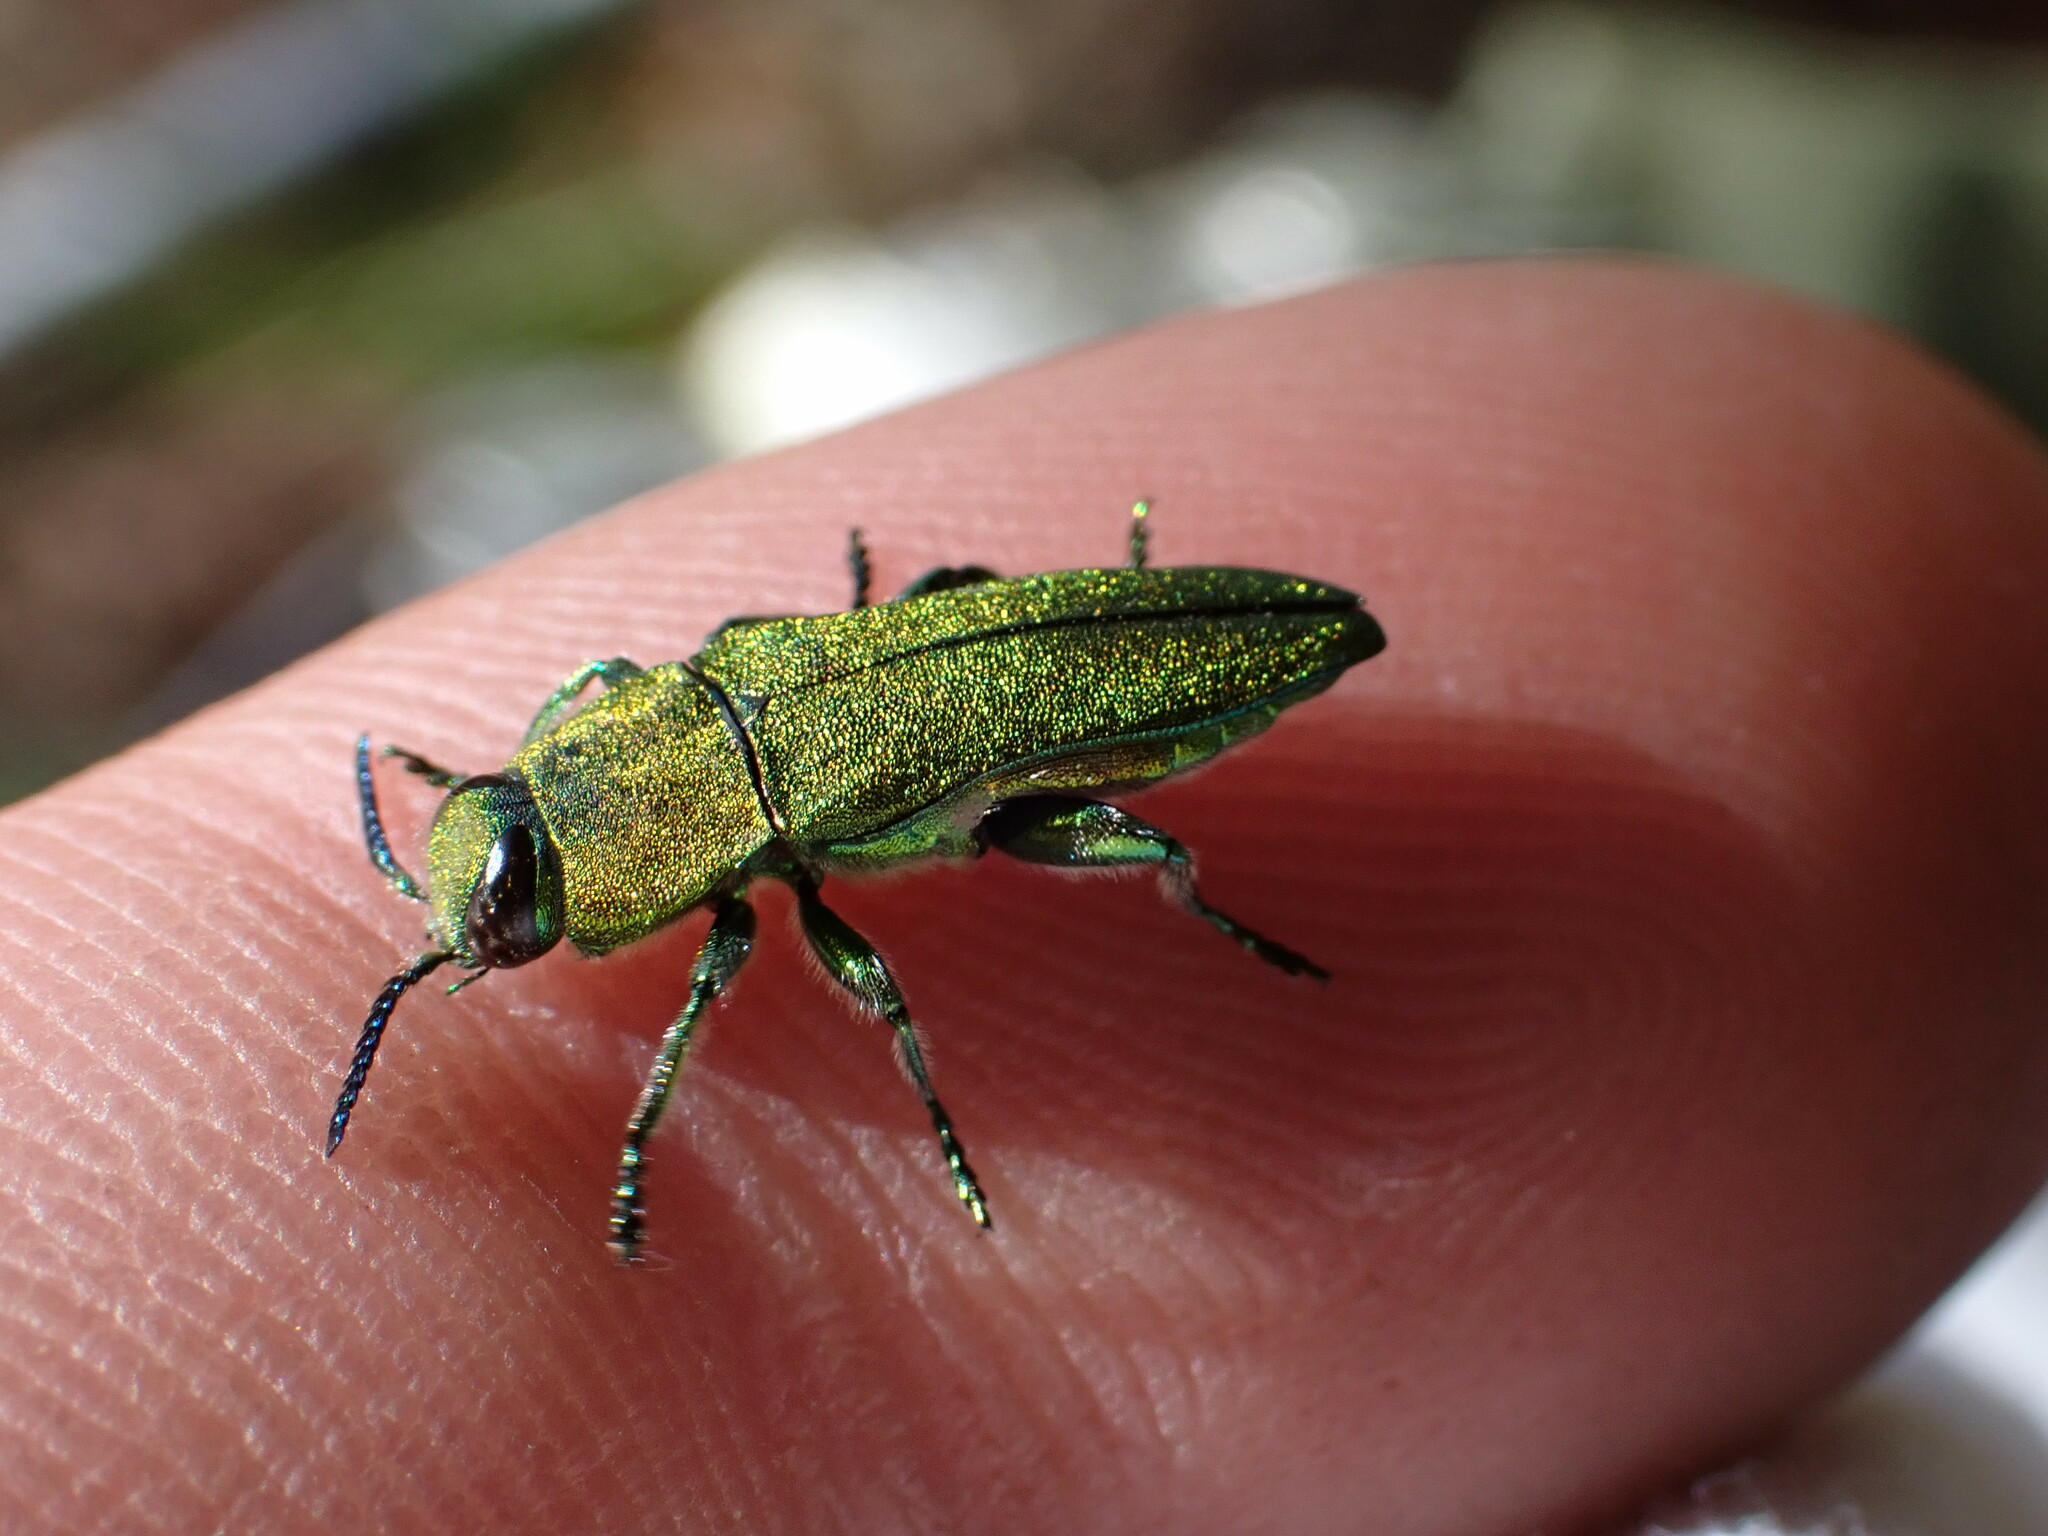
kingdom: Animalia
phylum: Arthropoda
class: Insecta
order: Coleoptera
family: Buprestidae
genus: Anthaxia
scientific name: Anthaxia hungarica
